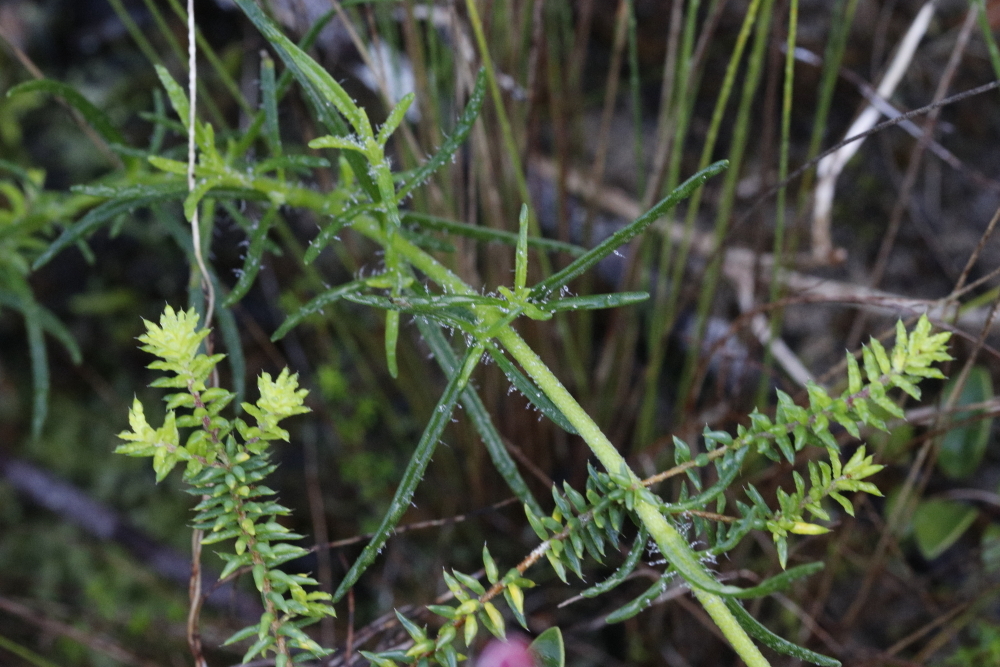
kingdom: Plantae
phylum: Tracheophyta
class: Magnoliopsida
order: Lamiales
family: Scrophulariaceae
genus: Zaluzianskya
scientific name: Zaluzianskya capensis
